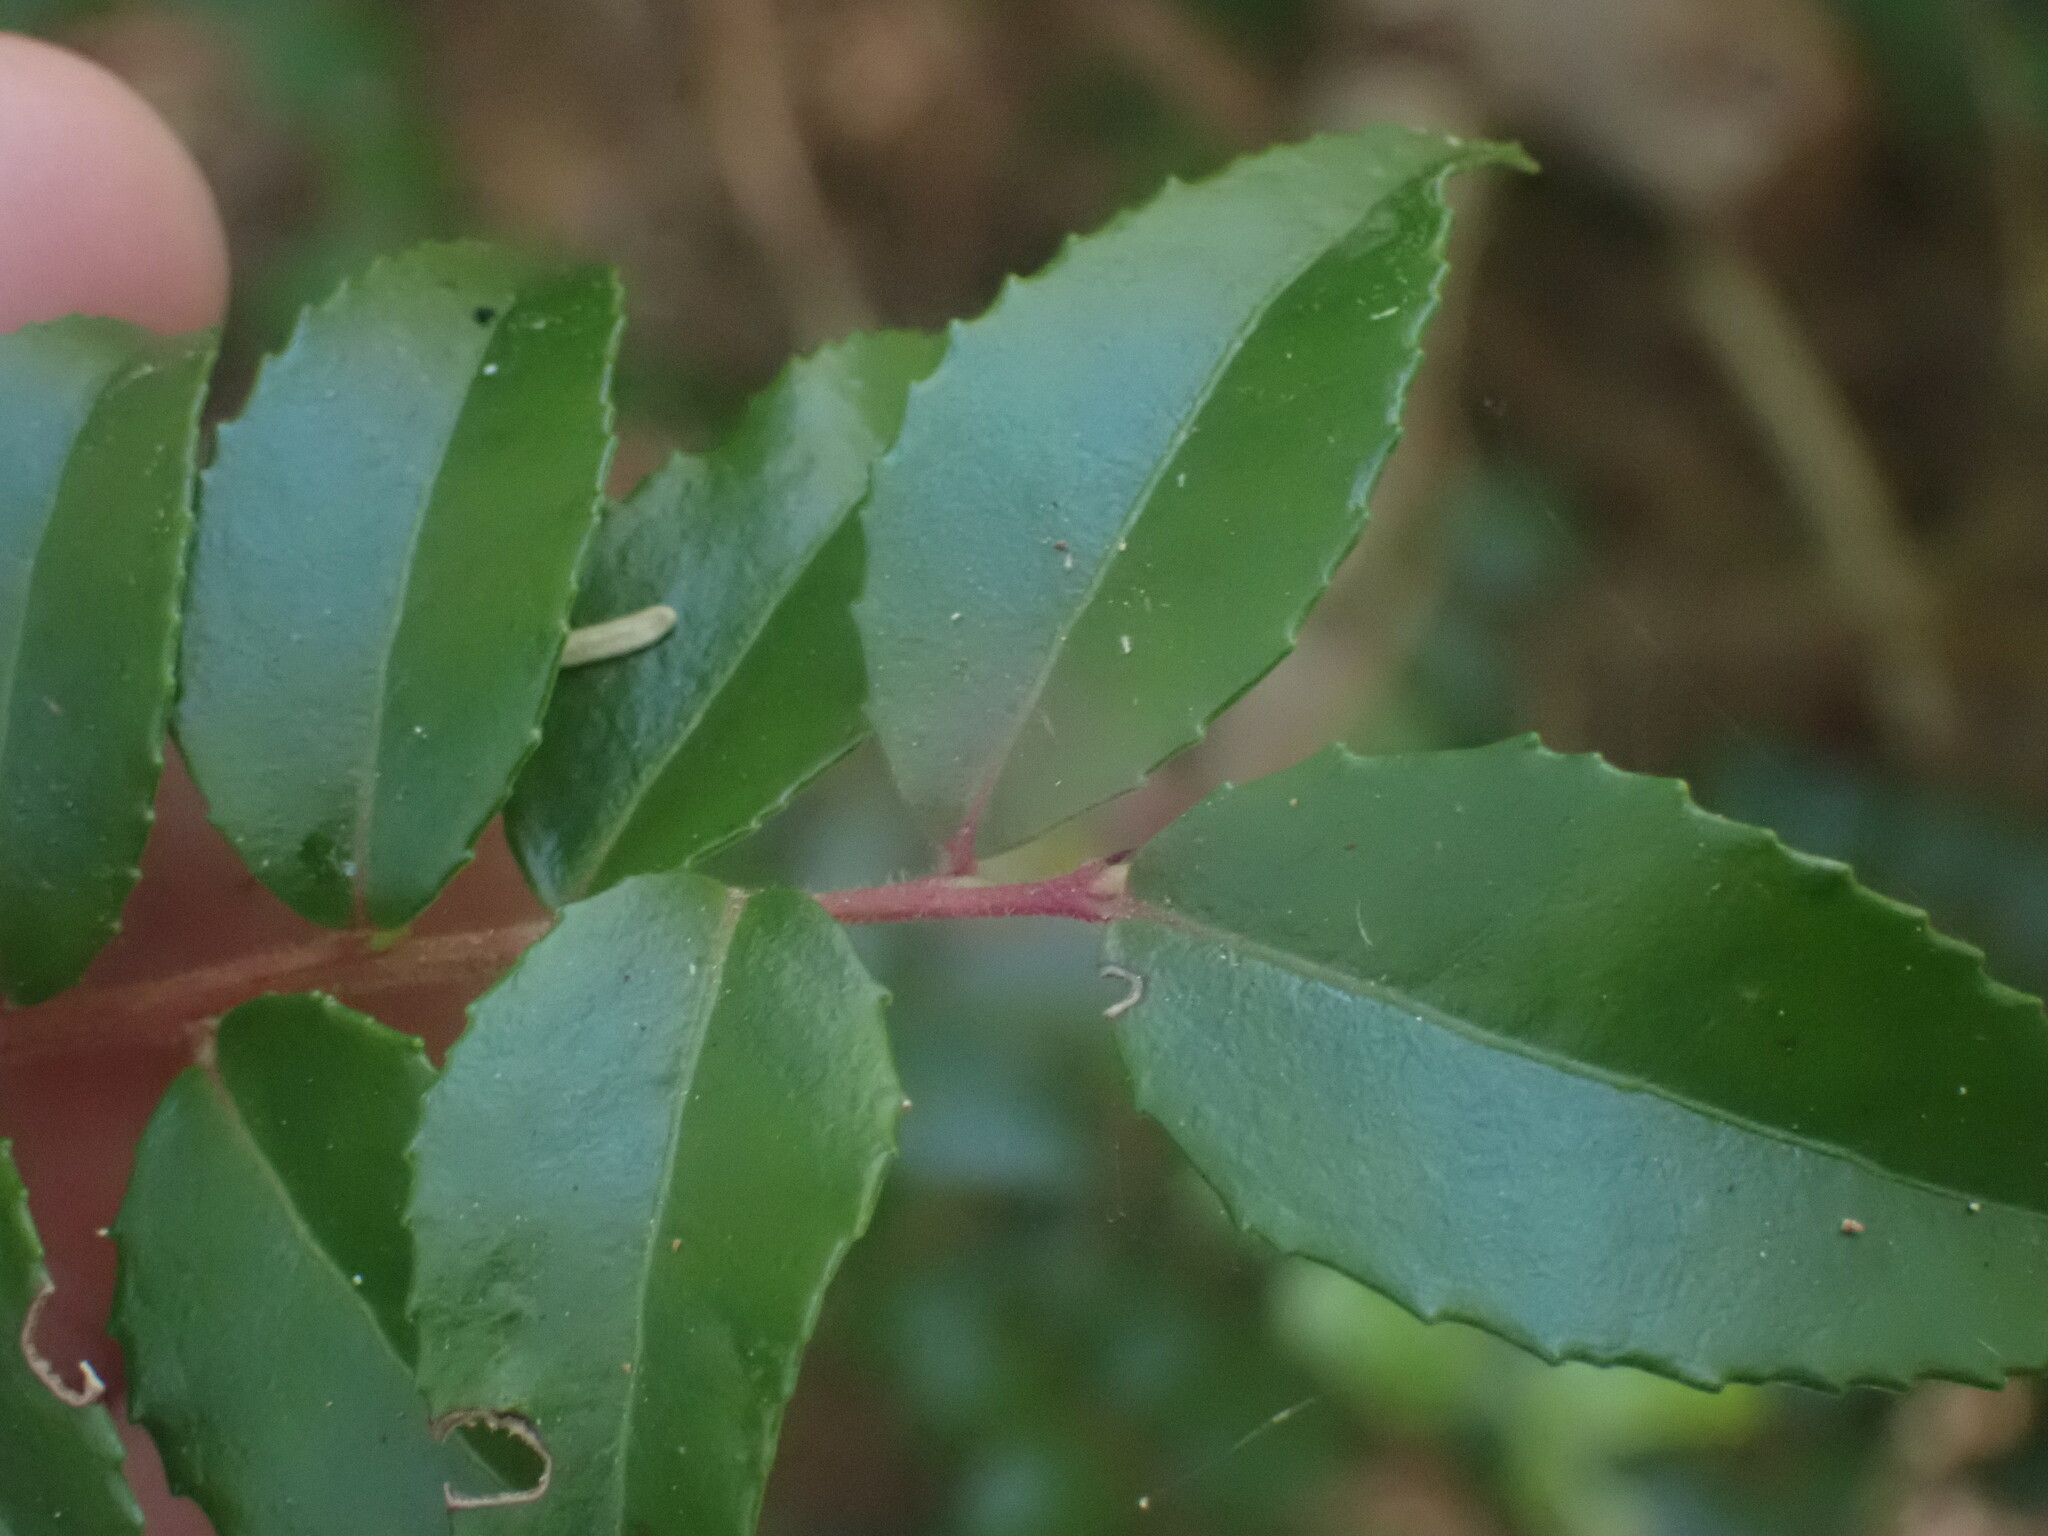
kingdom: Plantae
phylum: Tracheophyta
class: Magnoliopsida
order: Ericales
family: Ericaceae
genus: Vaccinium
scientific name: Vaccinium ovatum
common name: California-huckleberry
